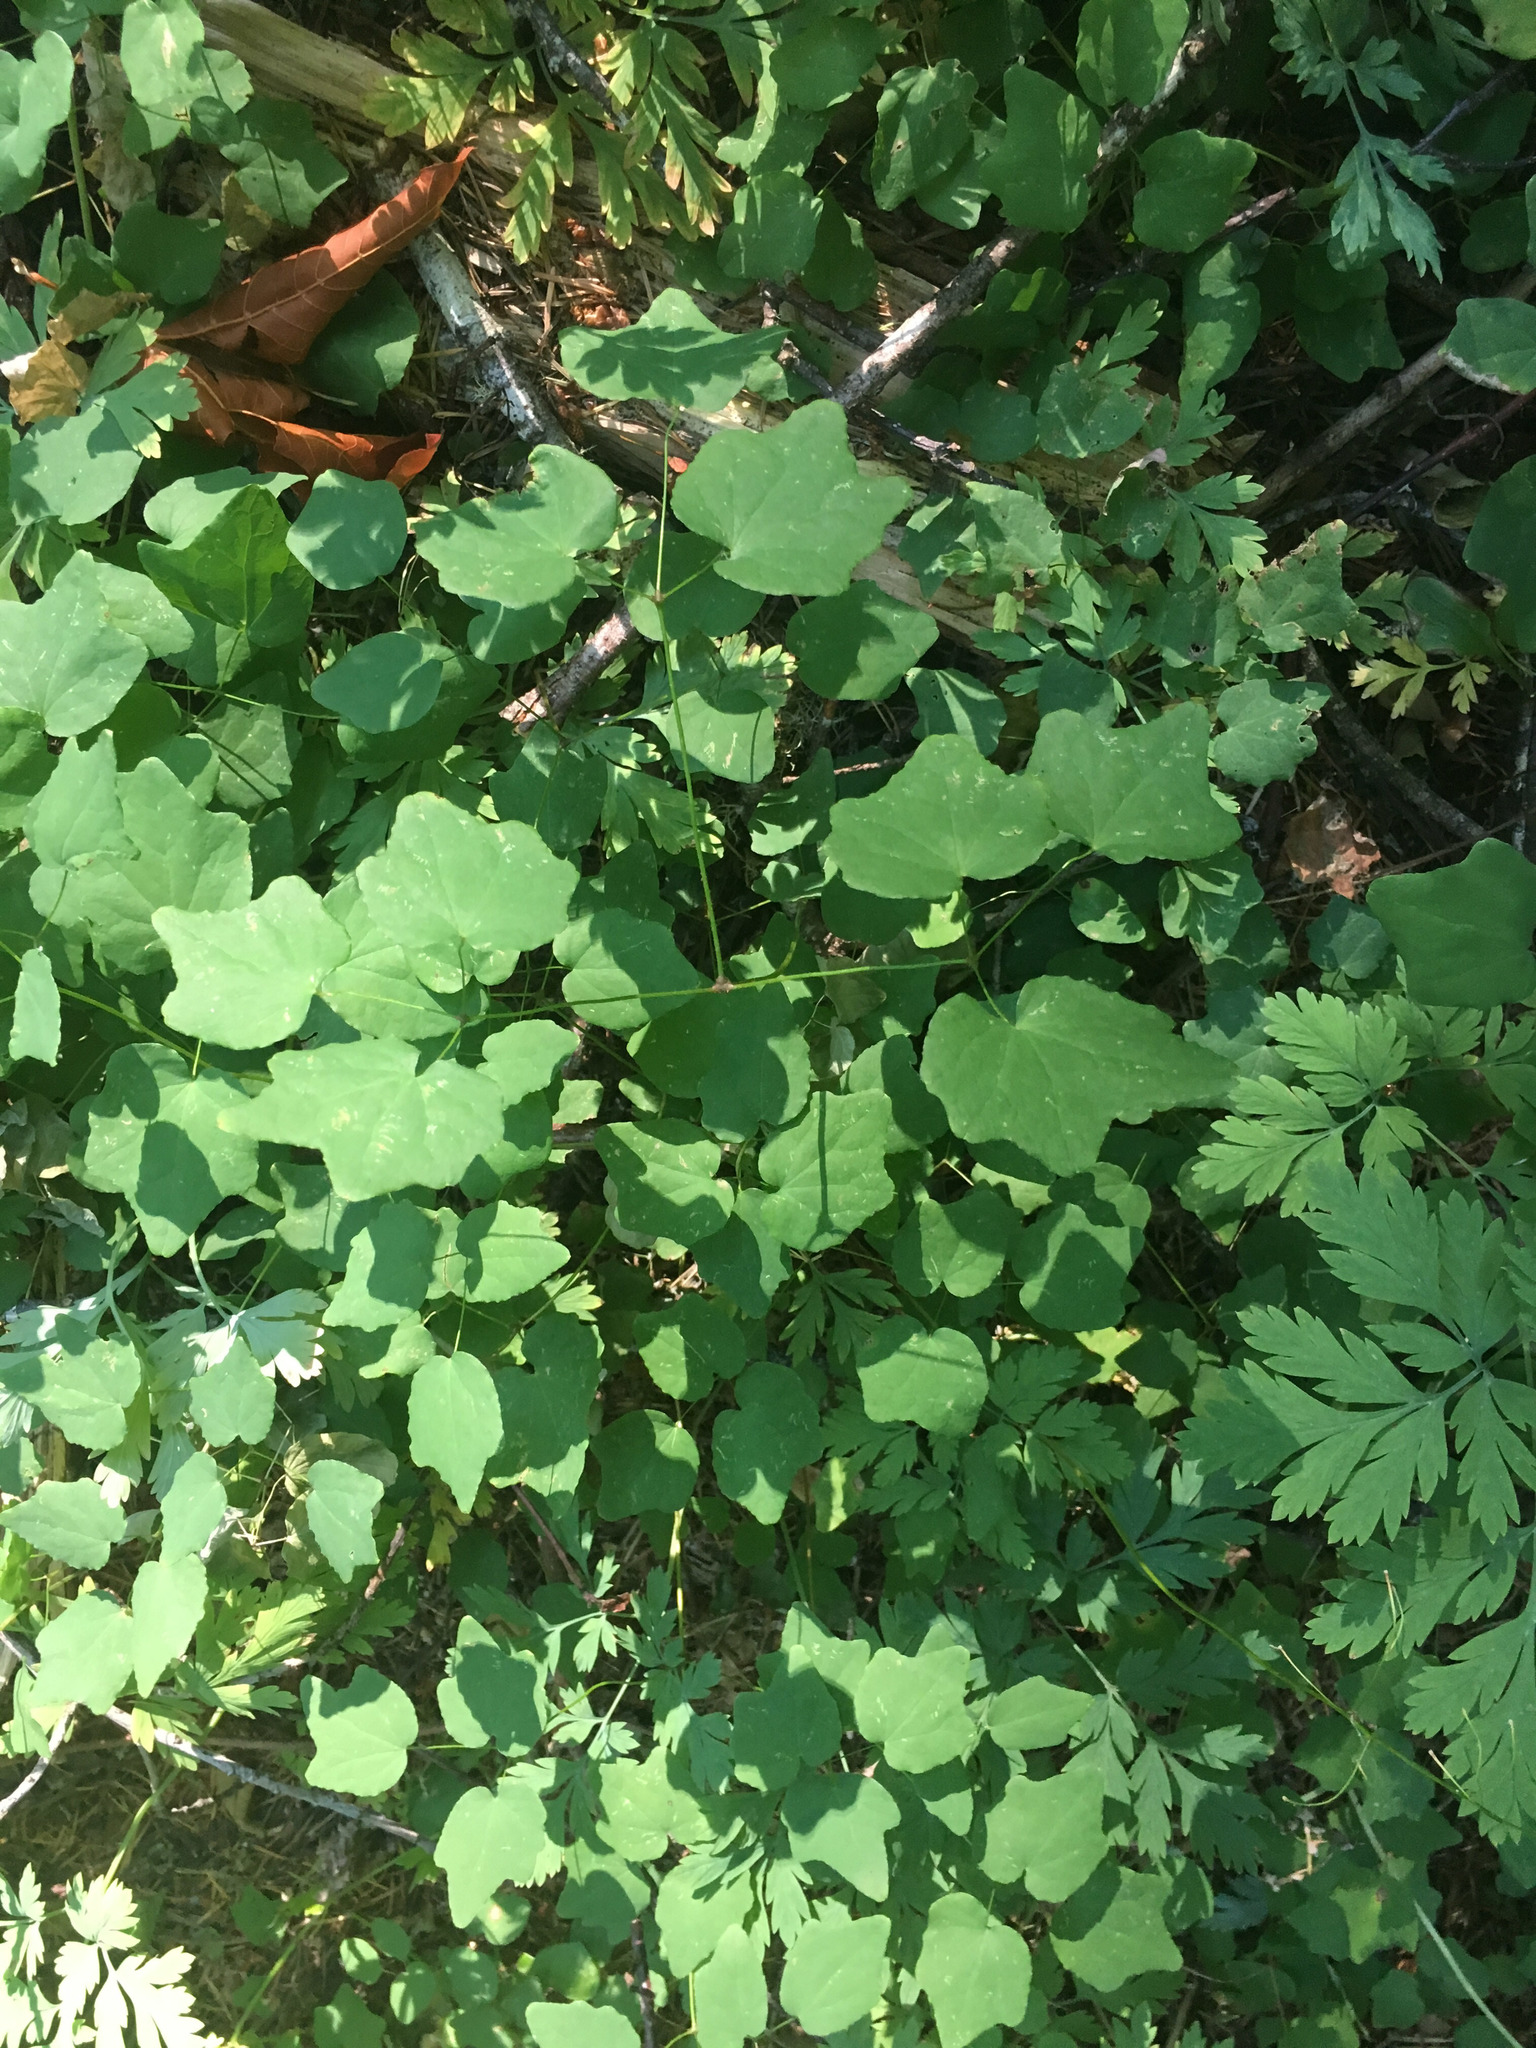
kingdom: Plantae
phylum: Tracheophyta
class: Magnoliopsida
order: Ranunculales
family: Berberidaceae
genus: Vancouveria
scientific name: Vancouveria hexandra
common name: Northern inside-out-flower
